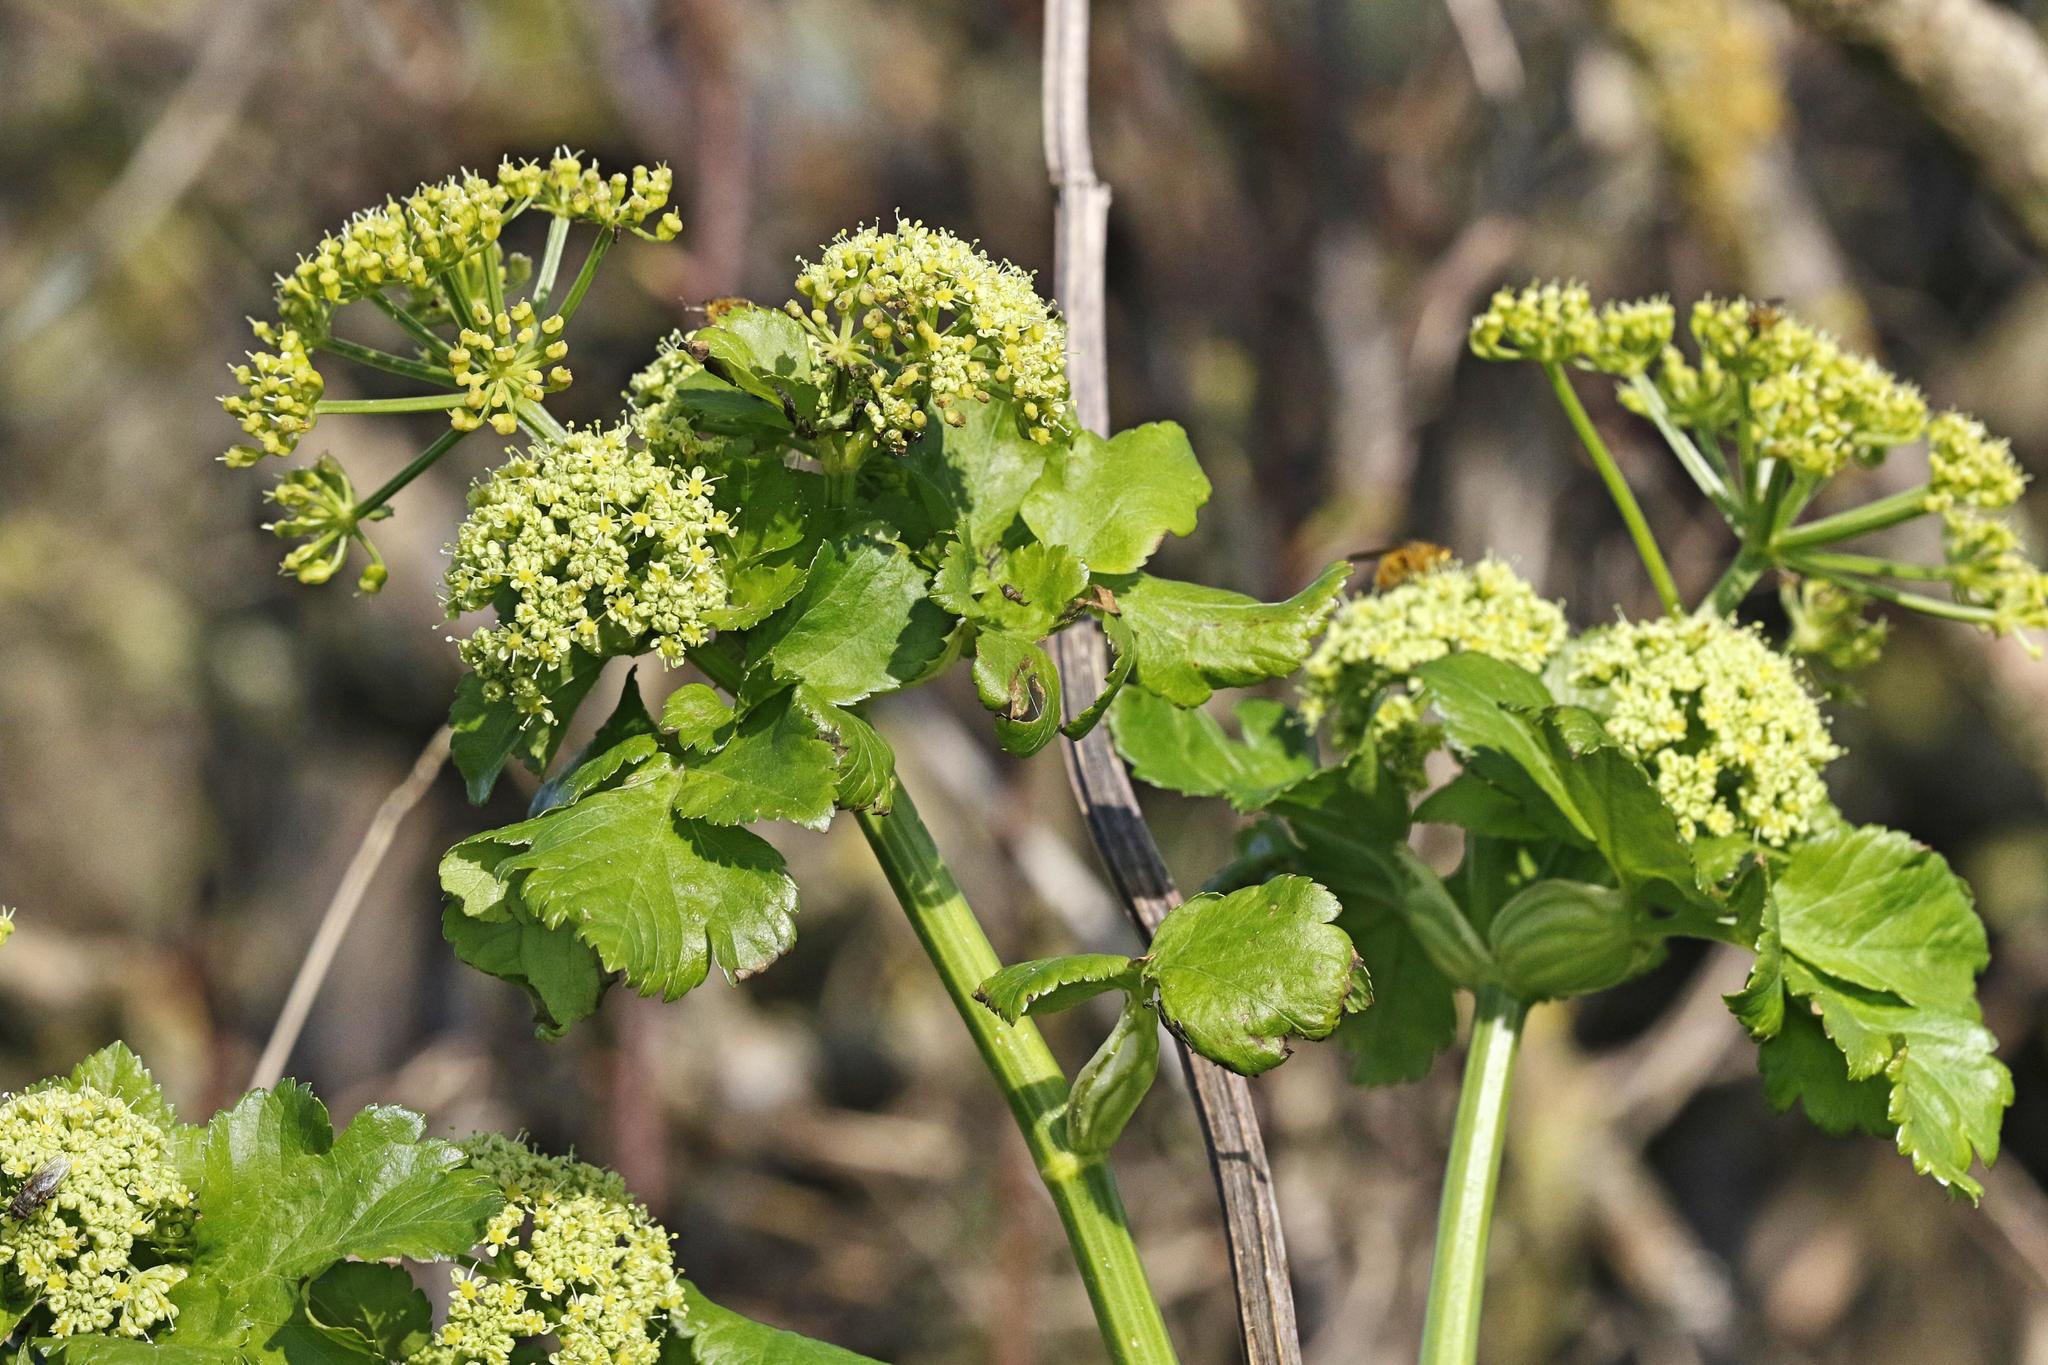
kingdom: Plantae
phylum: Tracheophyta
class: Magnoliopsida
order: Apiales
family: Apiaceae
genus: Smyrnium
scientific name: Smyrnium olusatrum
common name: Alexanders
